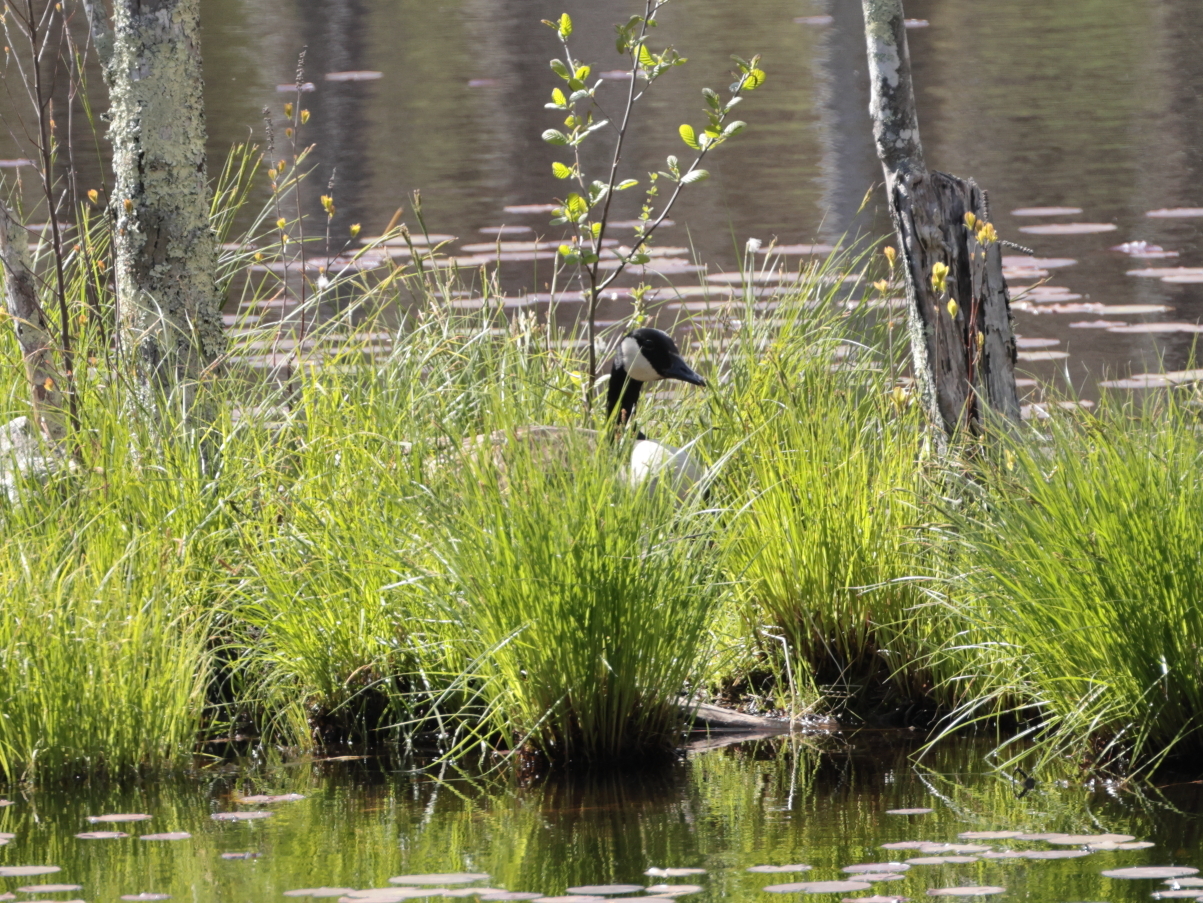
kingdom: Animalia
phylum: Chordata
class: Aves
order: Anseriformes
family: Anatidae
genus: Branta
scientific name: Branta canadensis
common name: Canada goose
